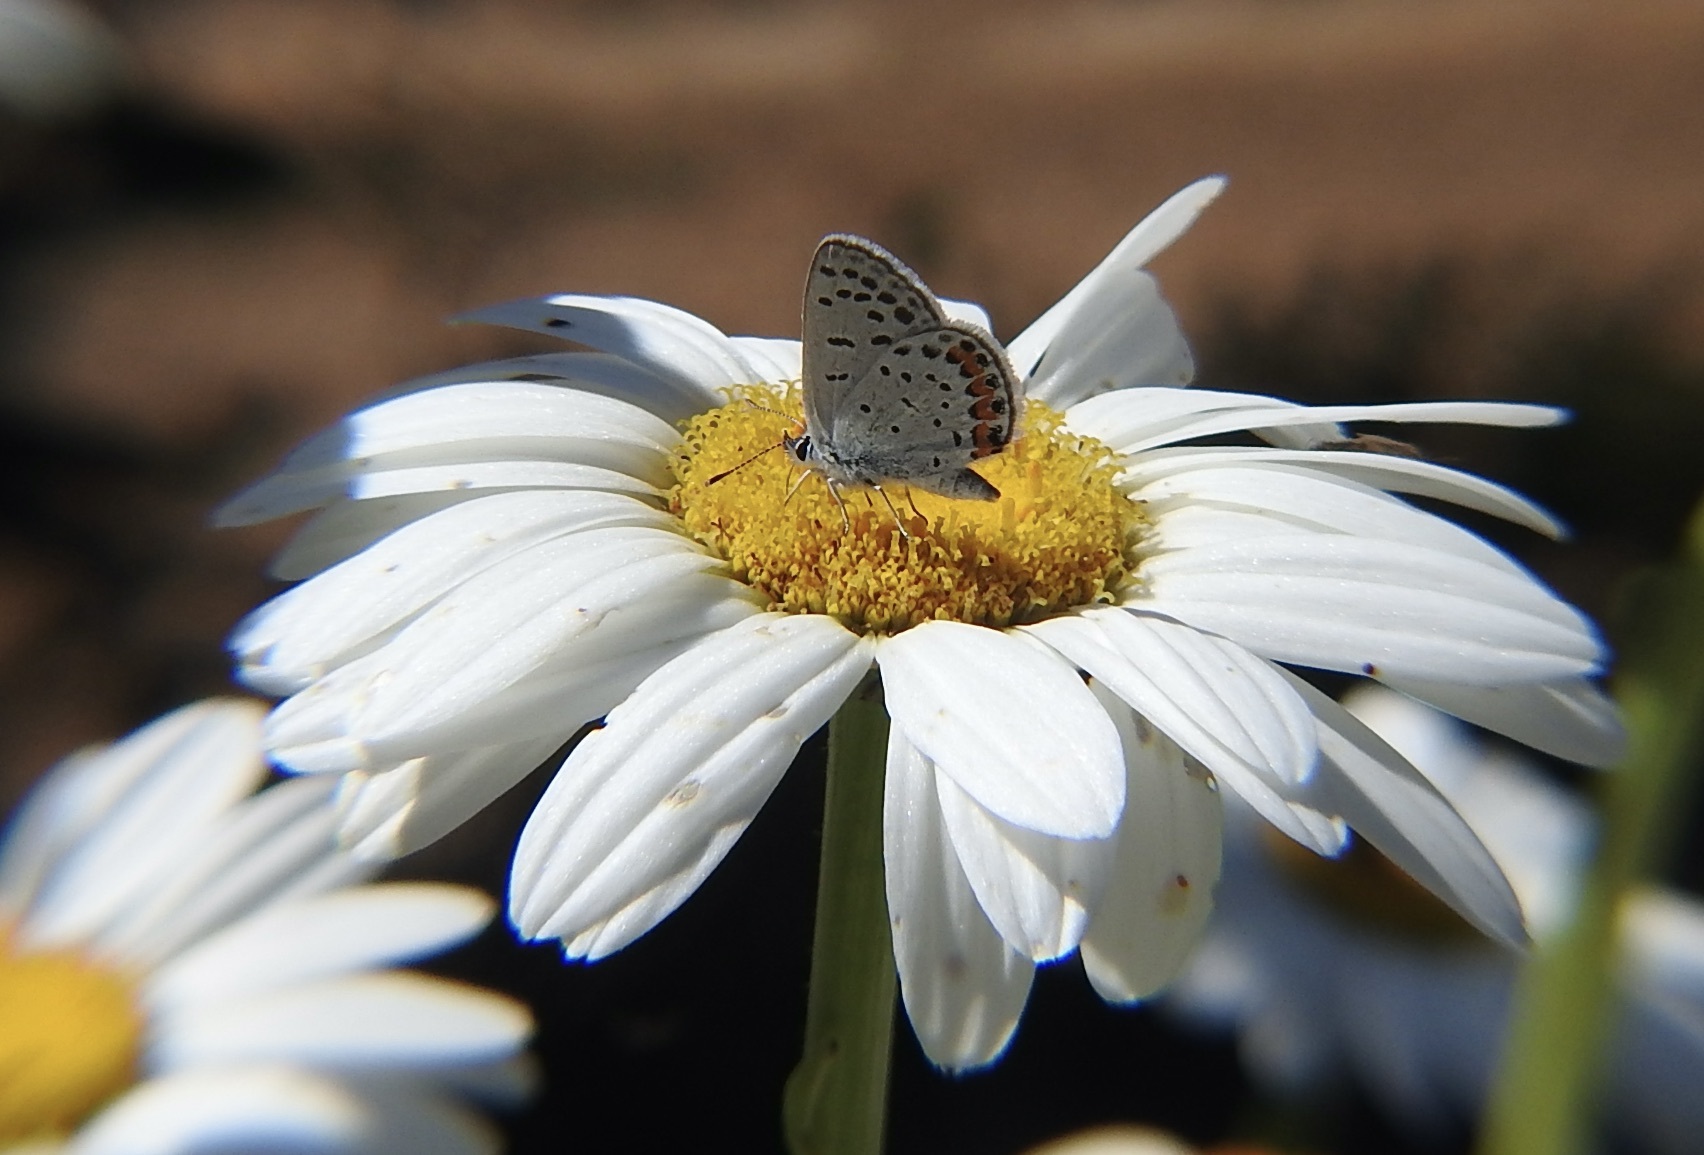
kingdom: Animalia
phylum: Arthropoda
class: Insecta
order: Lepidoptera
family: Lycaenidae
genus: Icaricia
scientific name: Icaricia acmon
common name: Acmon blue
